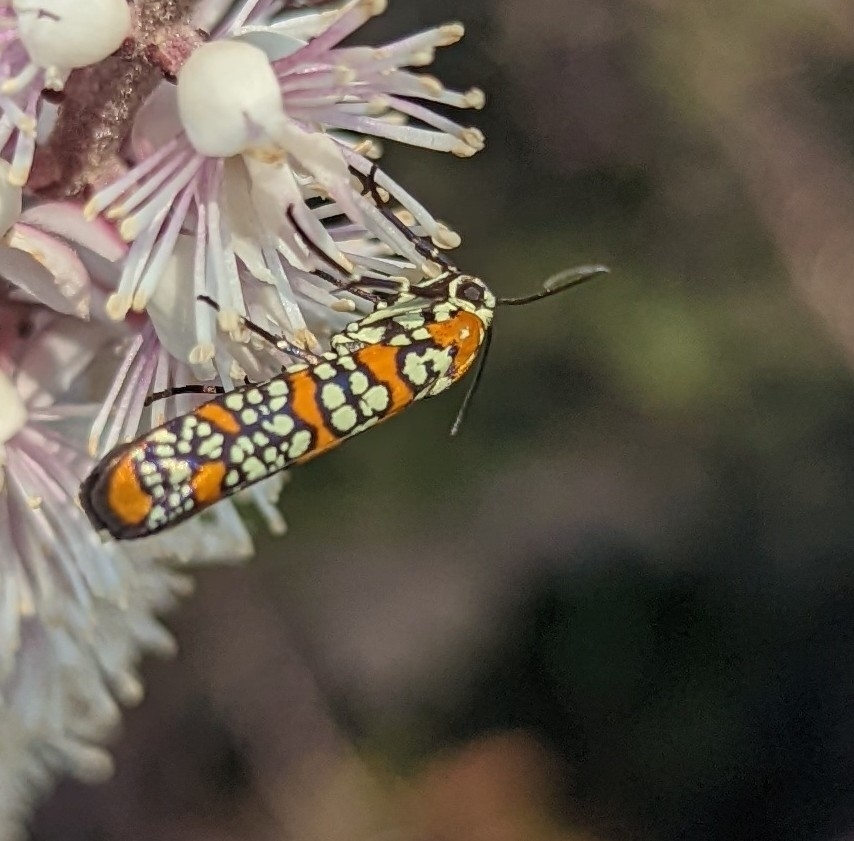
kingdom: Animalia
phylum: Arthropoda
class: Insecta
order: Lepidoptera
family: Attevidae
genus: Atteva
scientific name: Atteva punctella
